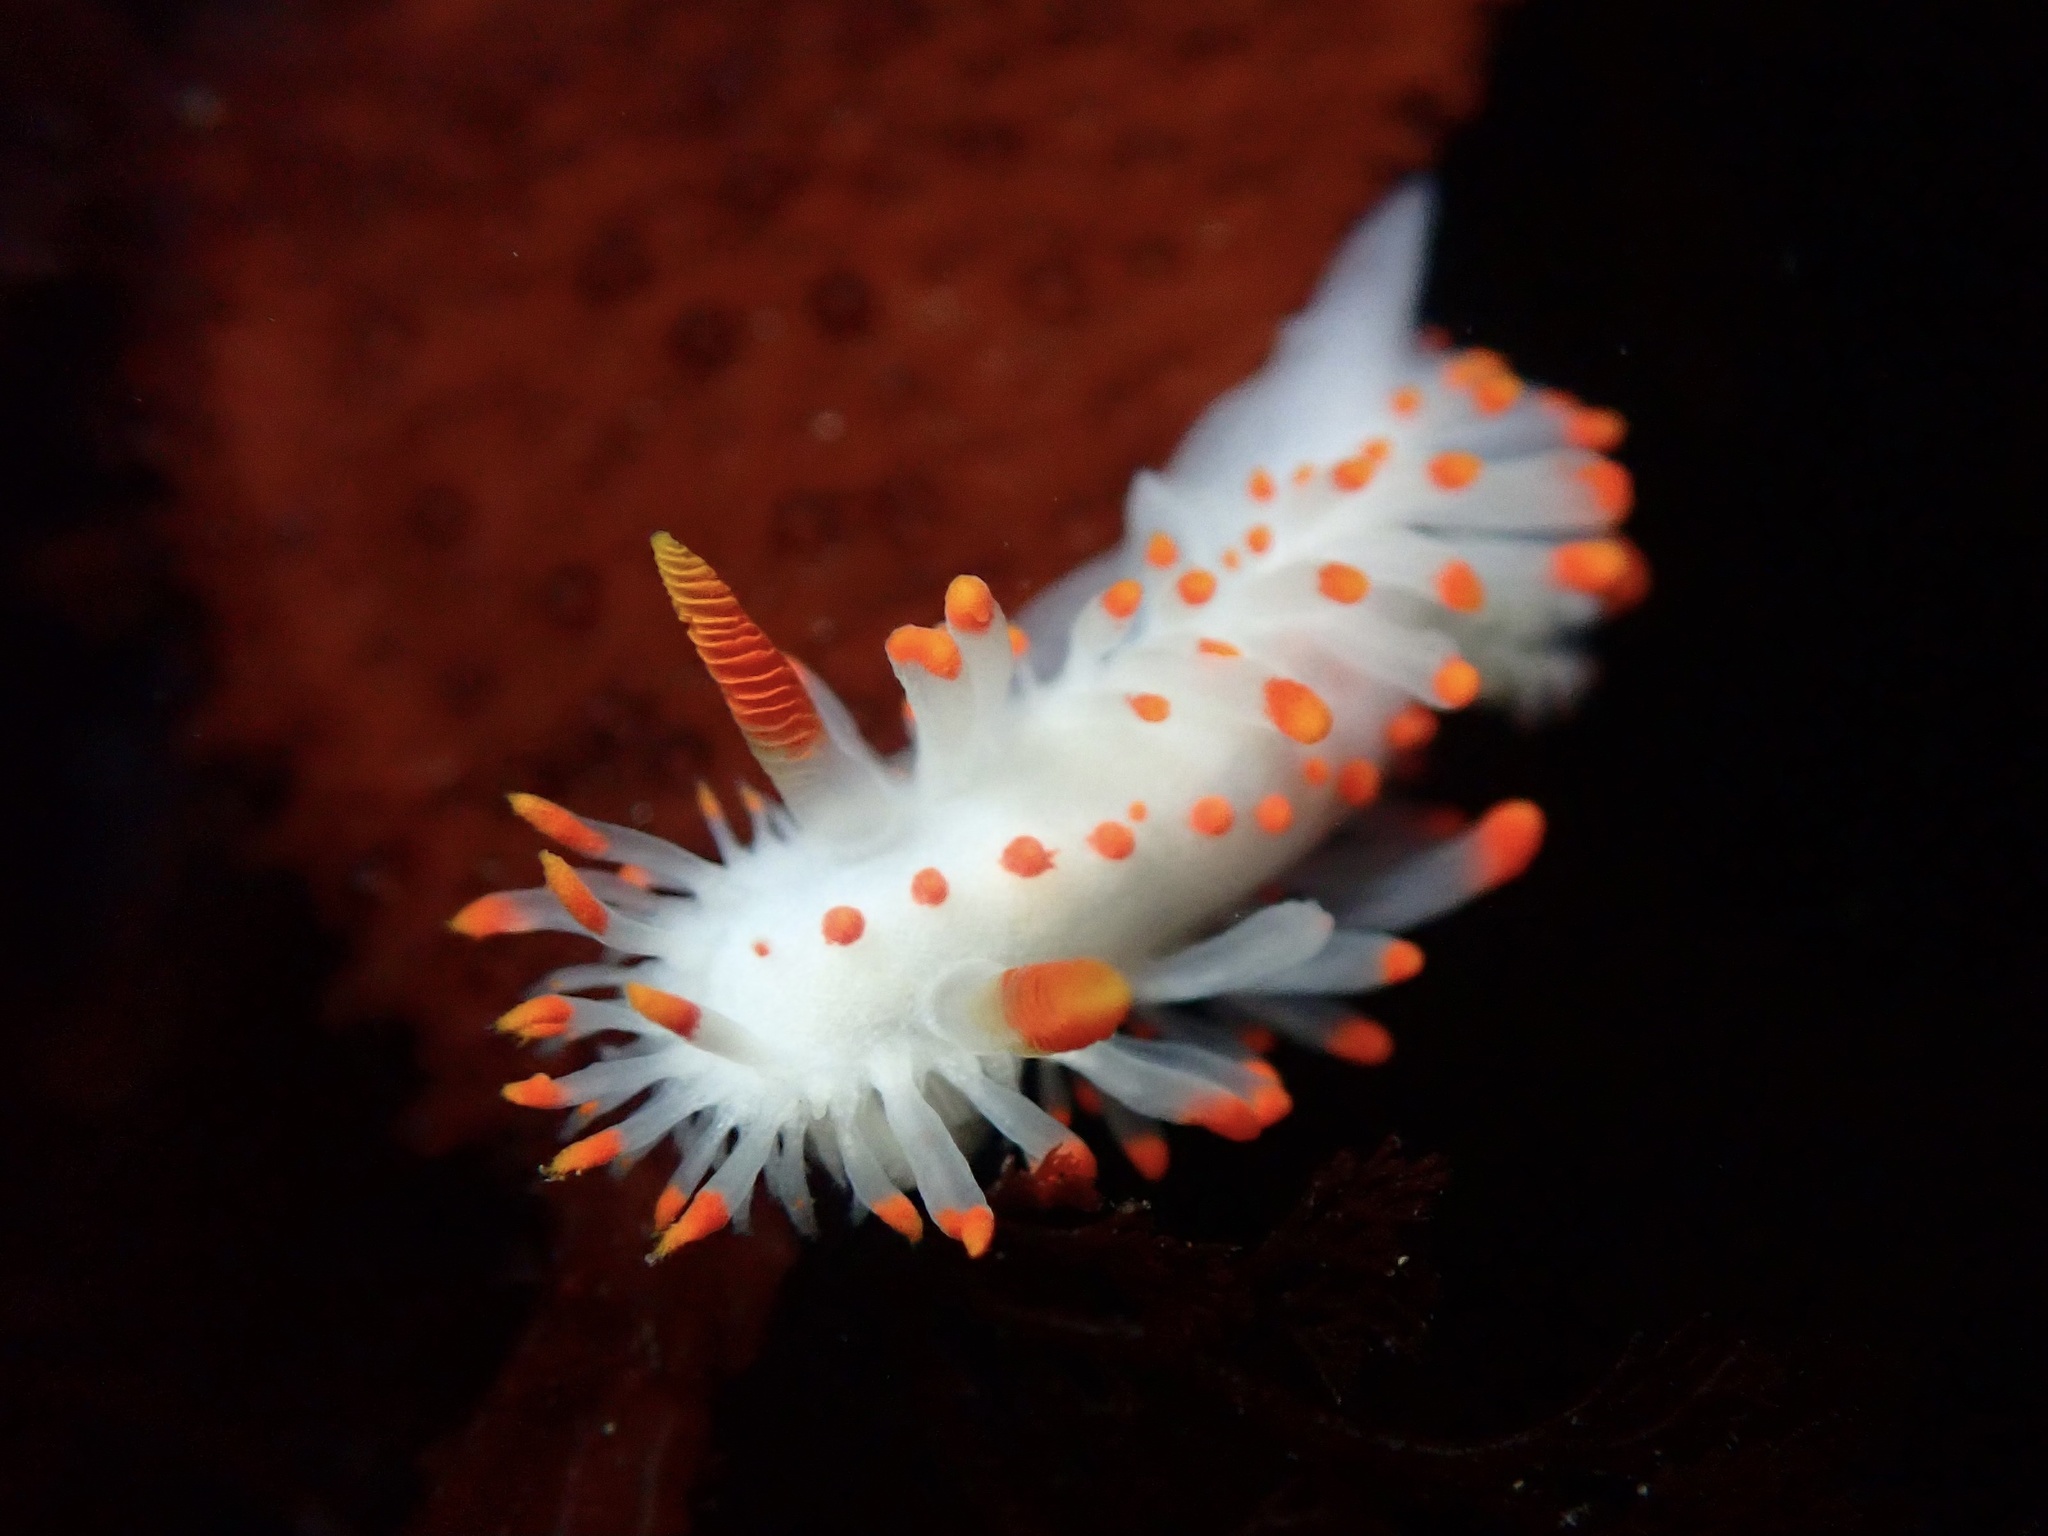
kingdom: Animalia
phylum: Mollusca
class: Gastropoda
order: Nudibranchia
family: Polyceridae
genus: Limacia
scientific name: Limacia mcdonaldi
